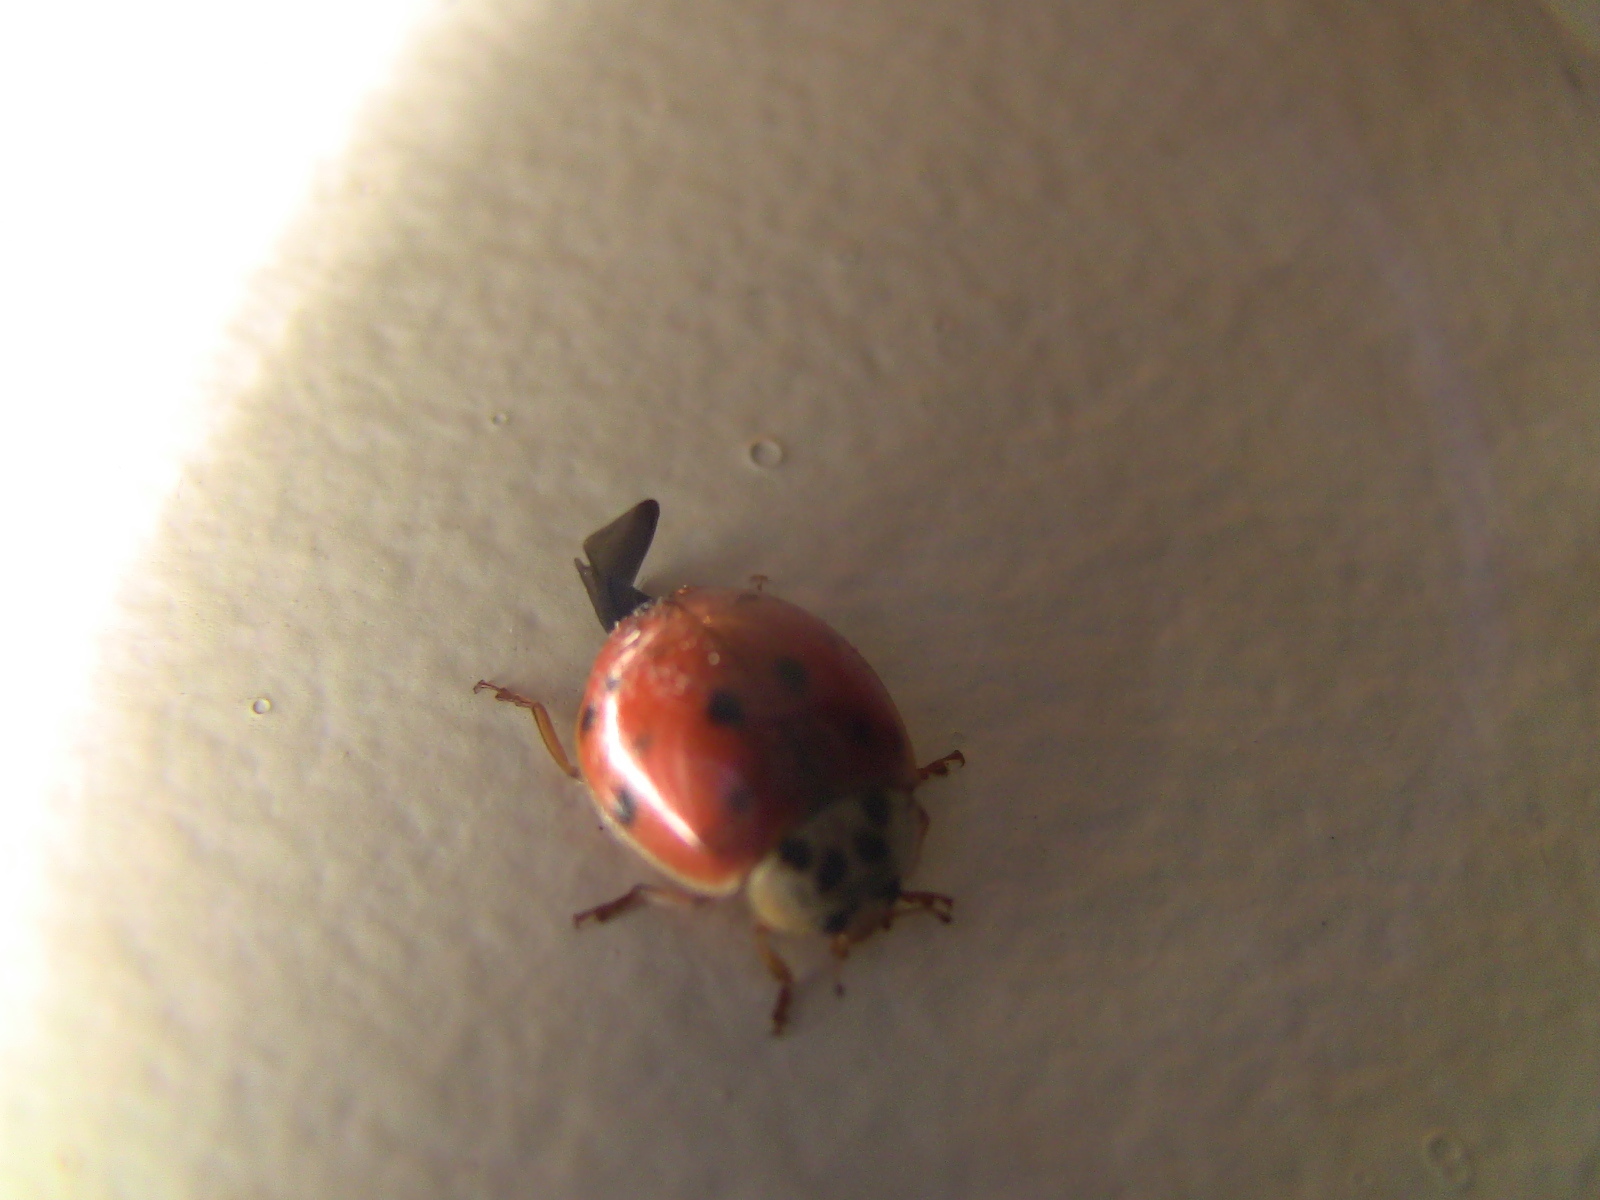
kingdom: Animalia
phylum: Arthropoda
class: Insecta
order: Coleoptera
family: Coccinellidae
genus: Harmonia
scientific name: Harmonia axyridis
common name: Harlequin ladybird
